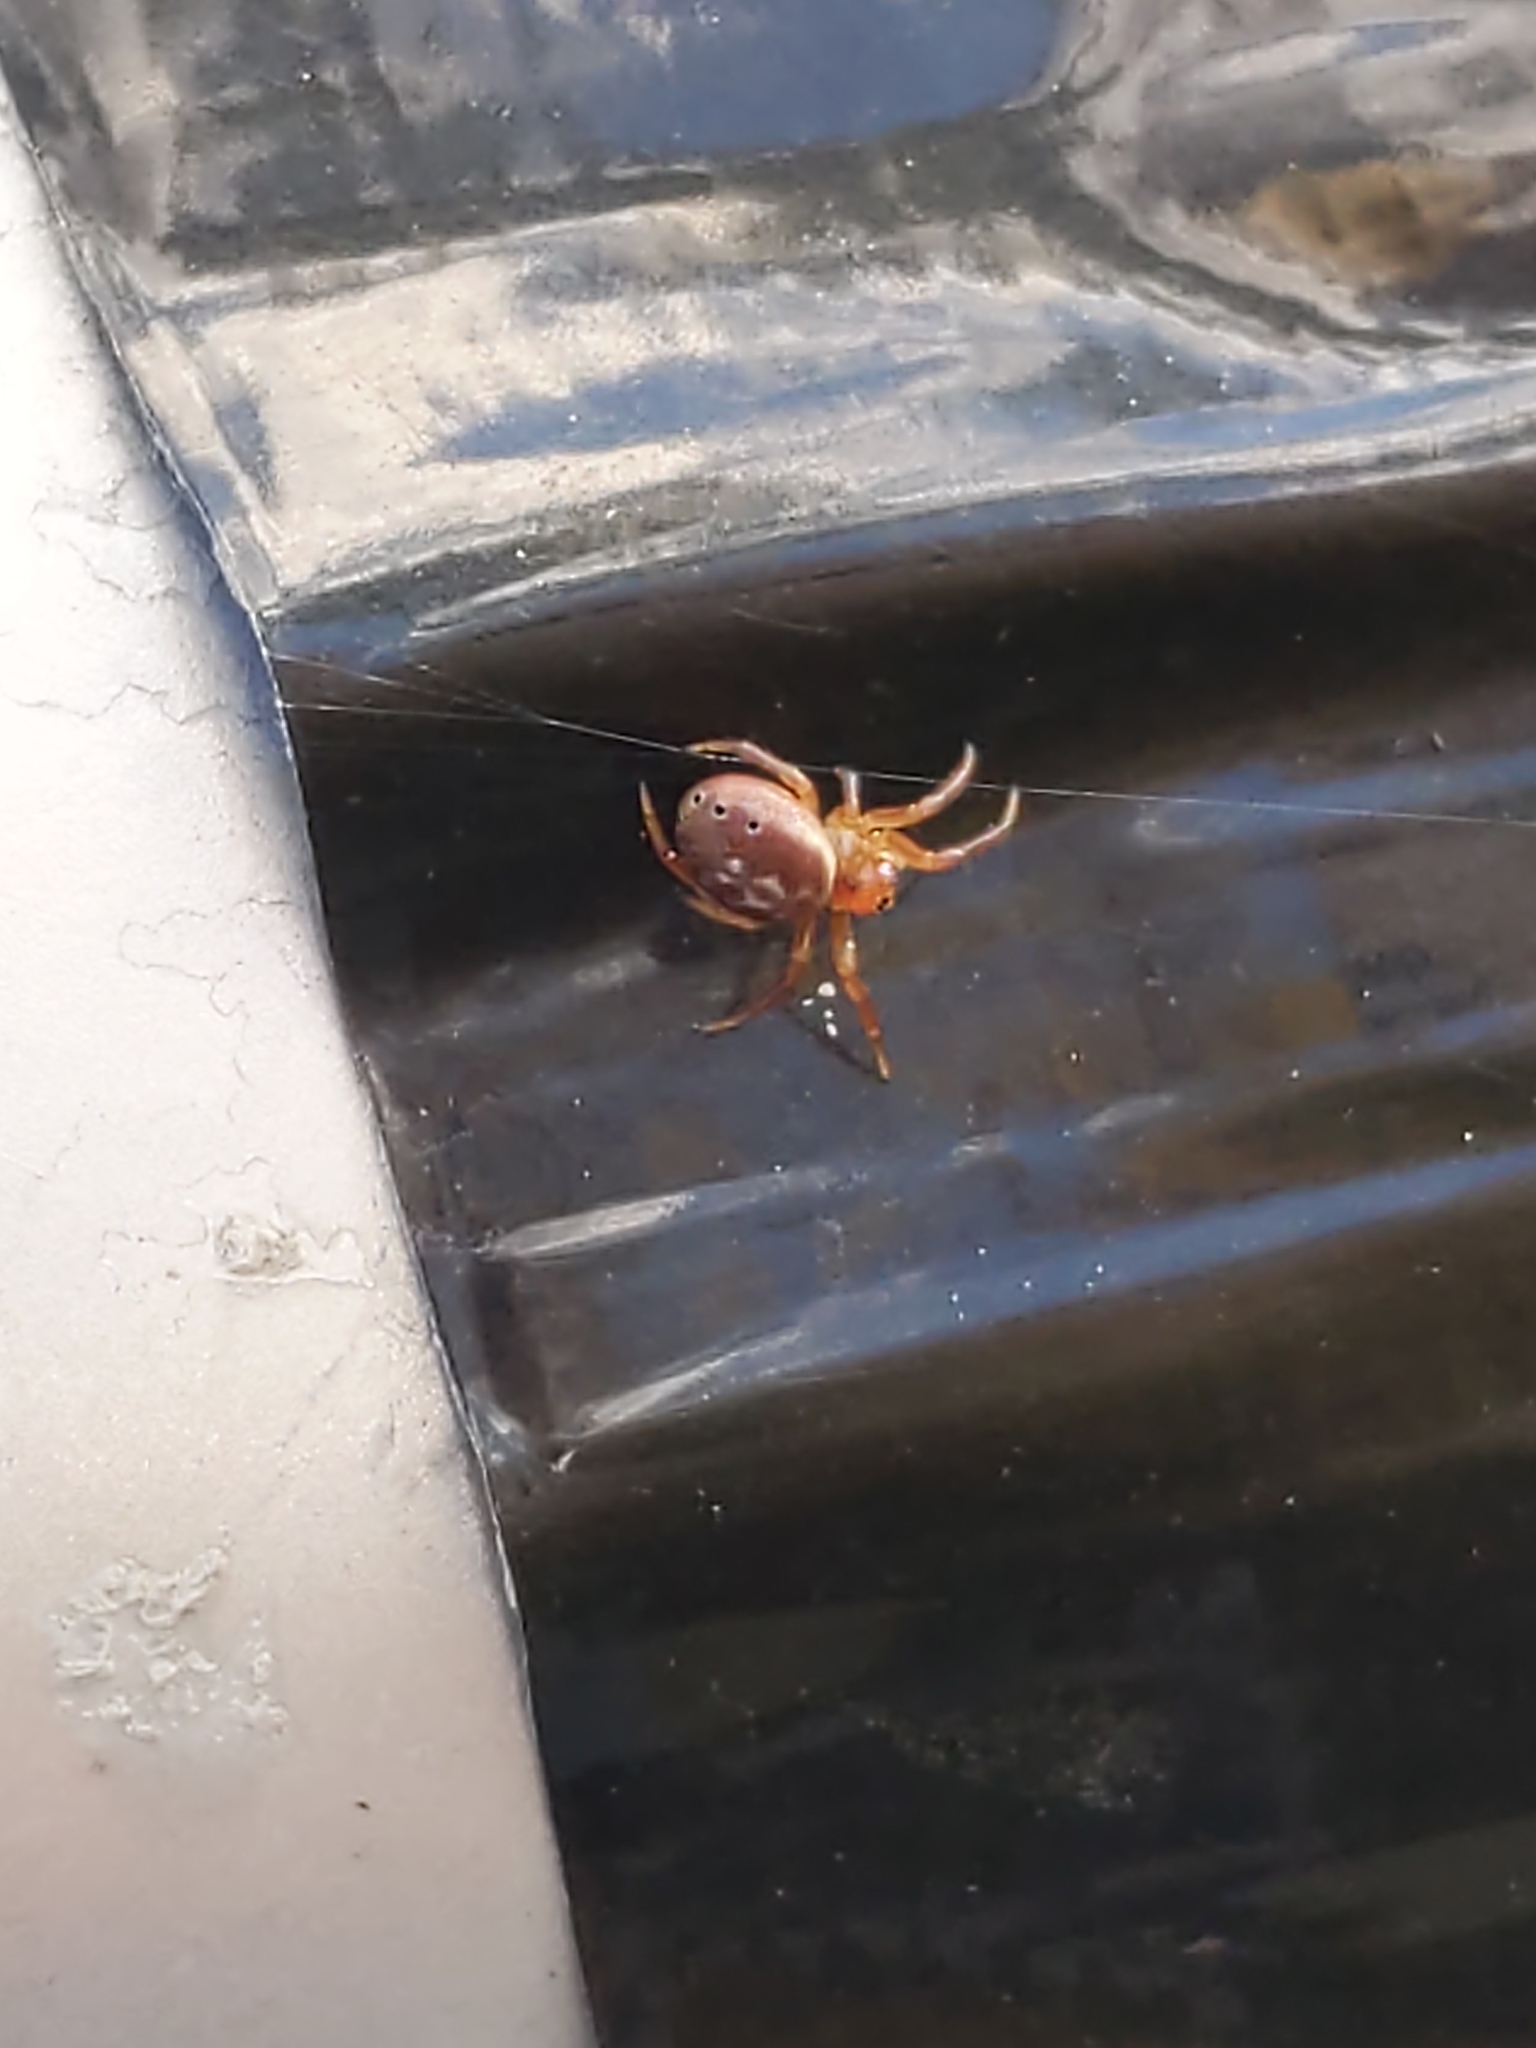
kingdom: Animalia
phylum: Arthropoda
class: Arachnida
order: Araneae
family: Araneidae
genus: Araniella
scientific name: Araniella displicata
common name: Sixspotted orb weaver
